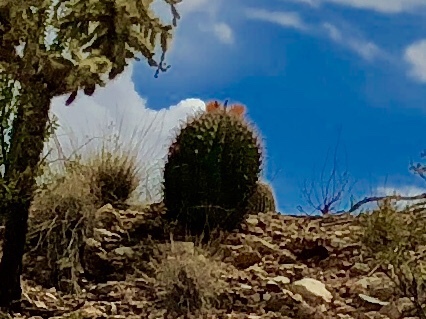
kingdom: Plantae
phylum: Tracheophyta
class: Magnoliopsida
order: Caryophyllales
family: Cactaceae
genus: Ferocactus
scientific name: Ferocactus wislizeni
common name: Candy barrel cactus
